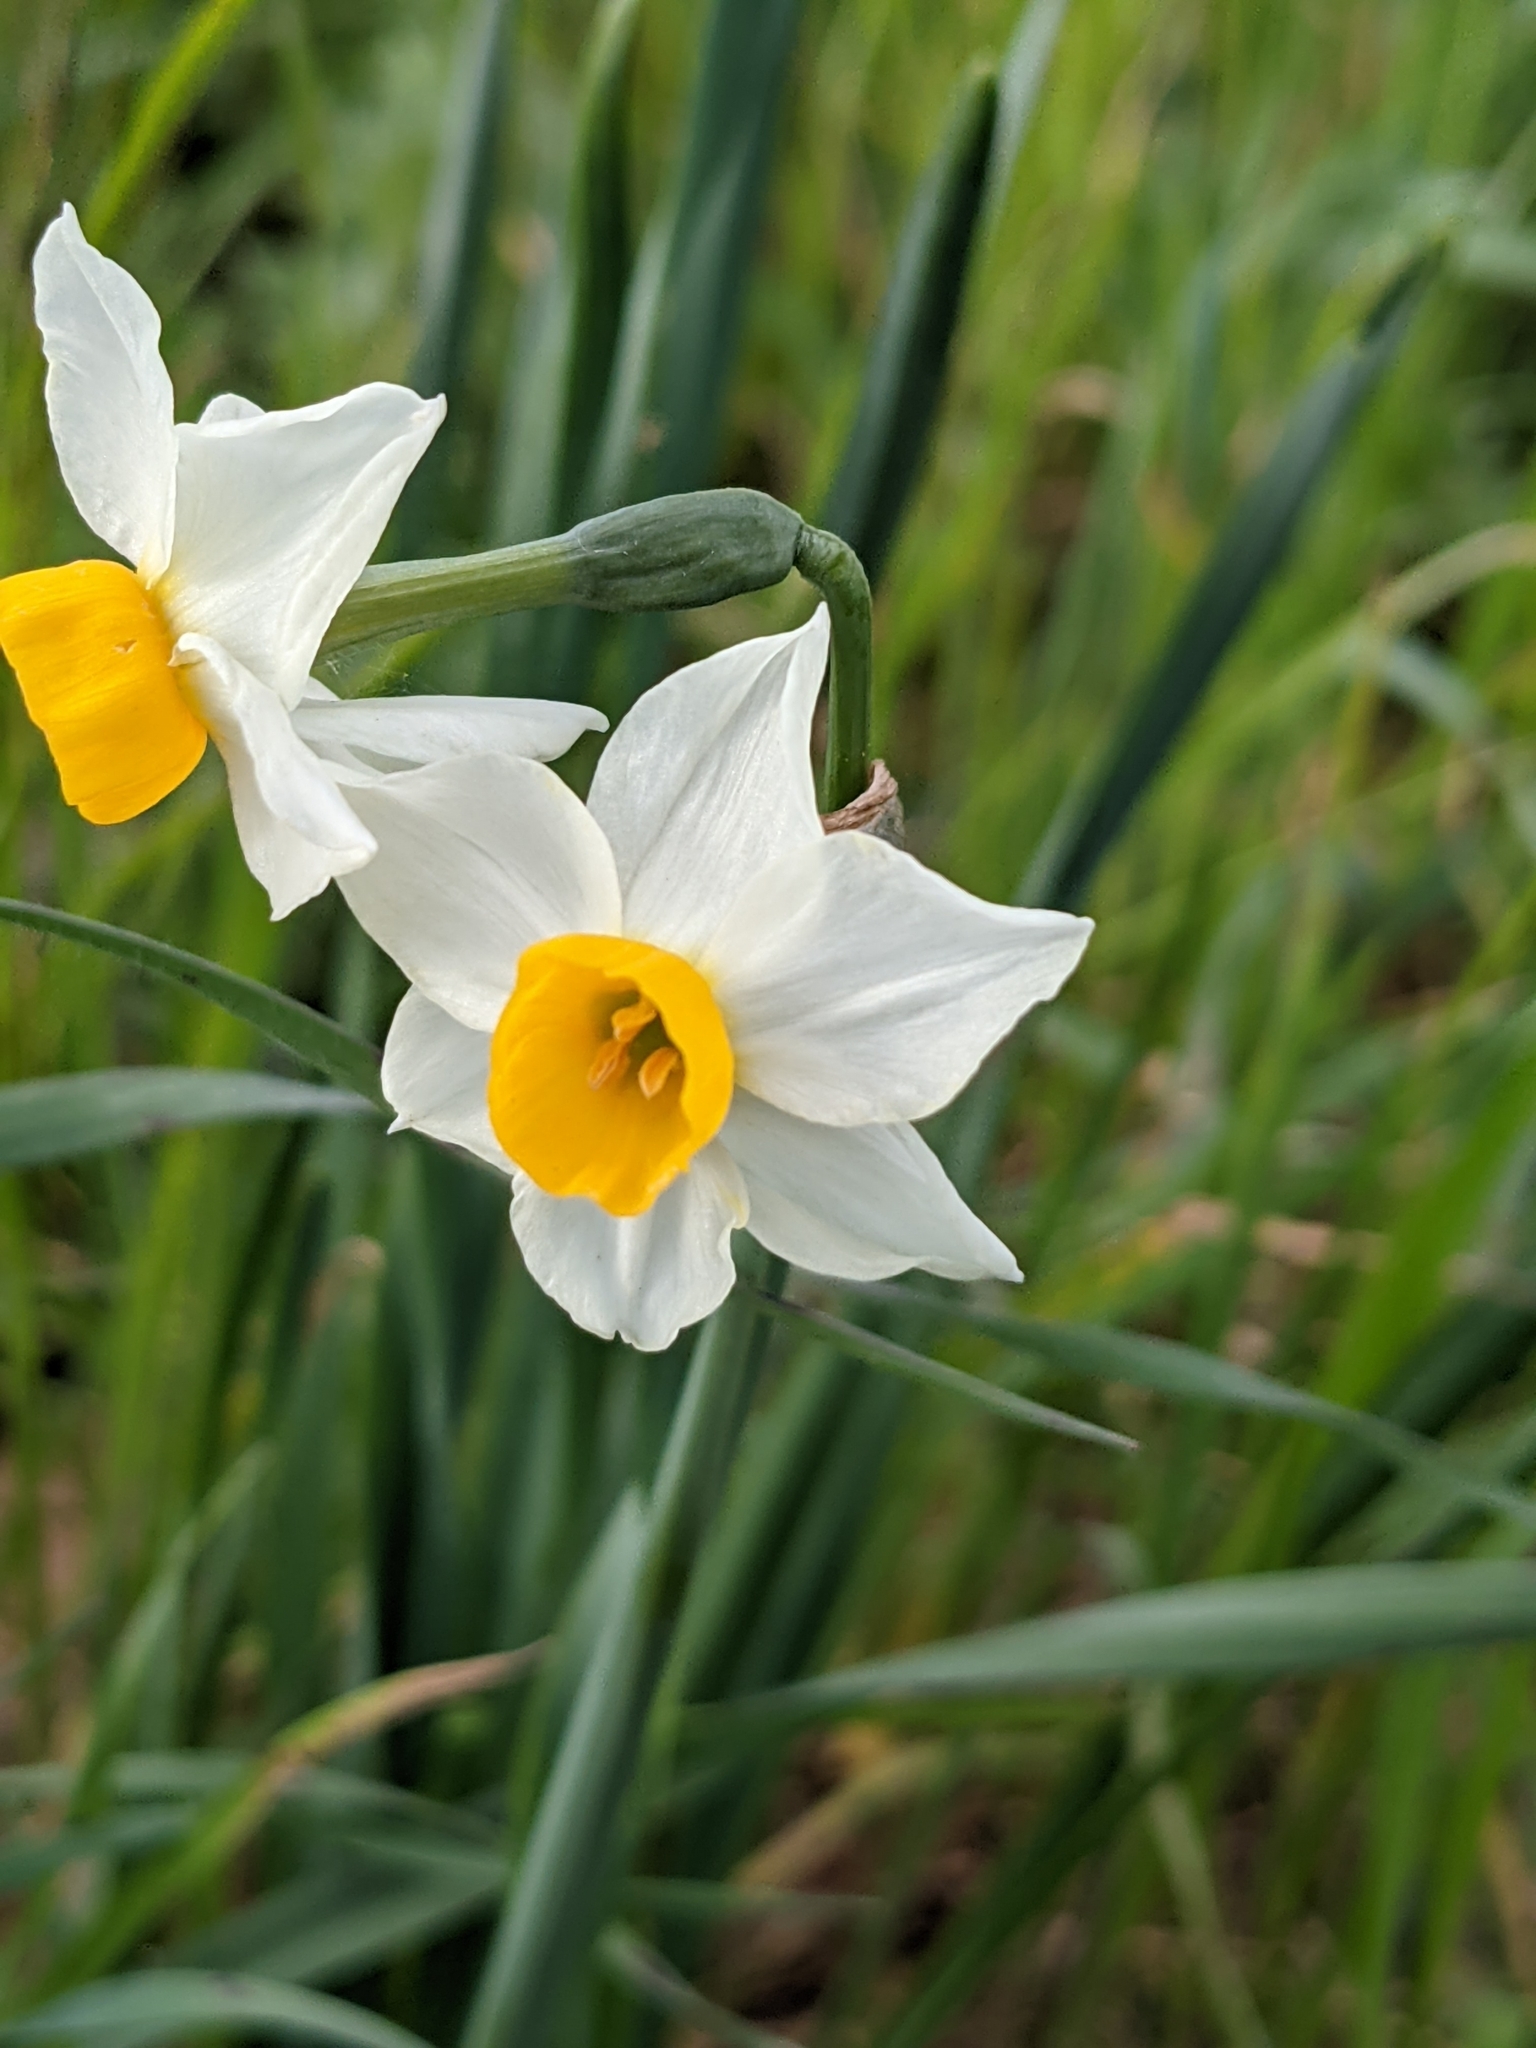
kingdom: Plantae
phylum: Tracheophyta
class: Liliopsida
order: Asparagales
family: Amaryllidaceae
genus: Narcissus
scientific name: Narcissus tazetta
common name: Bunch-flowered daffodil
